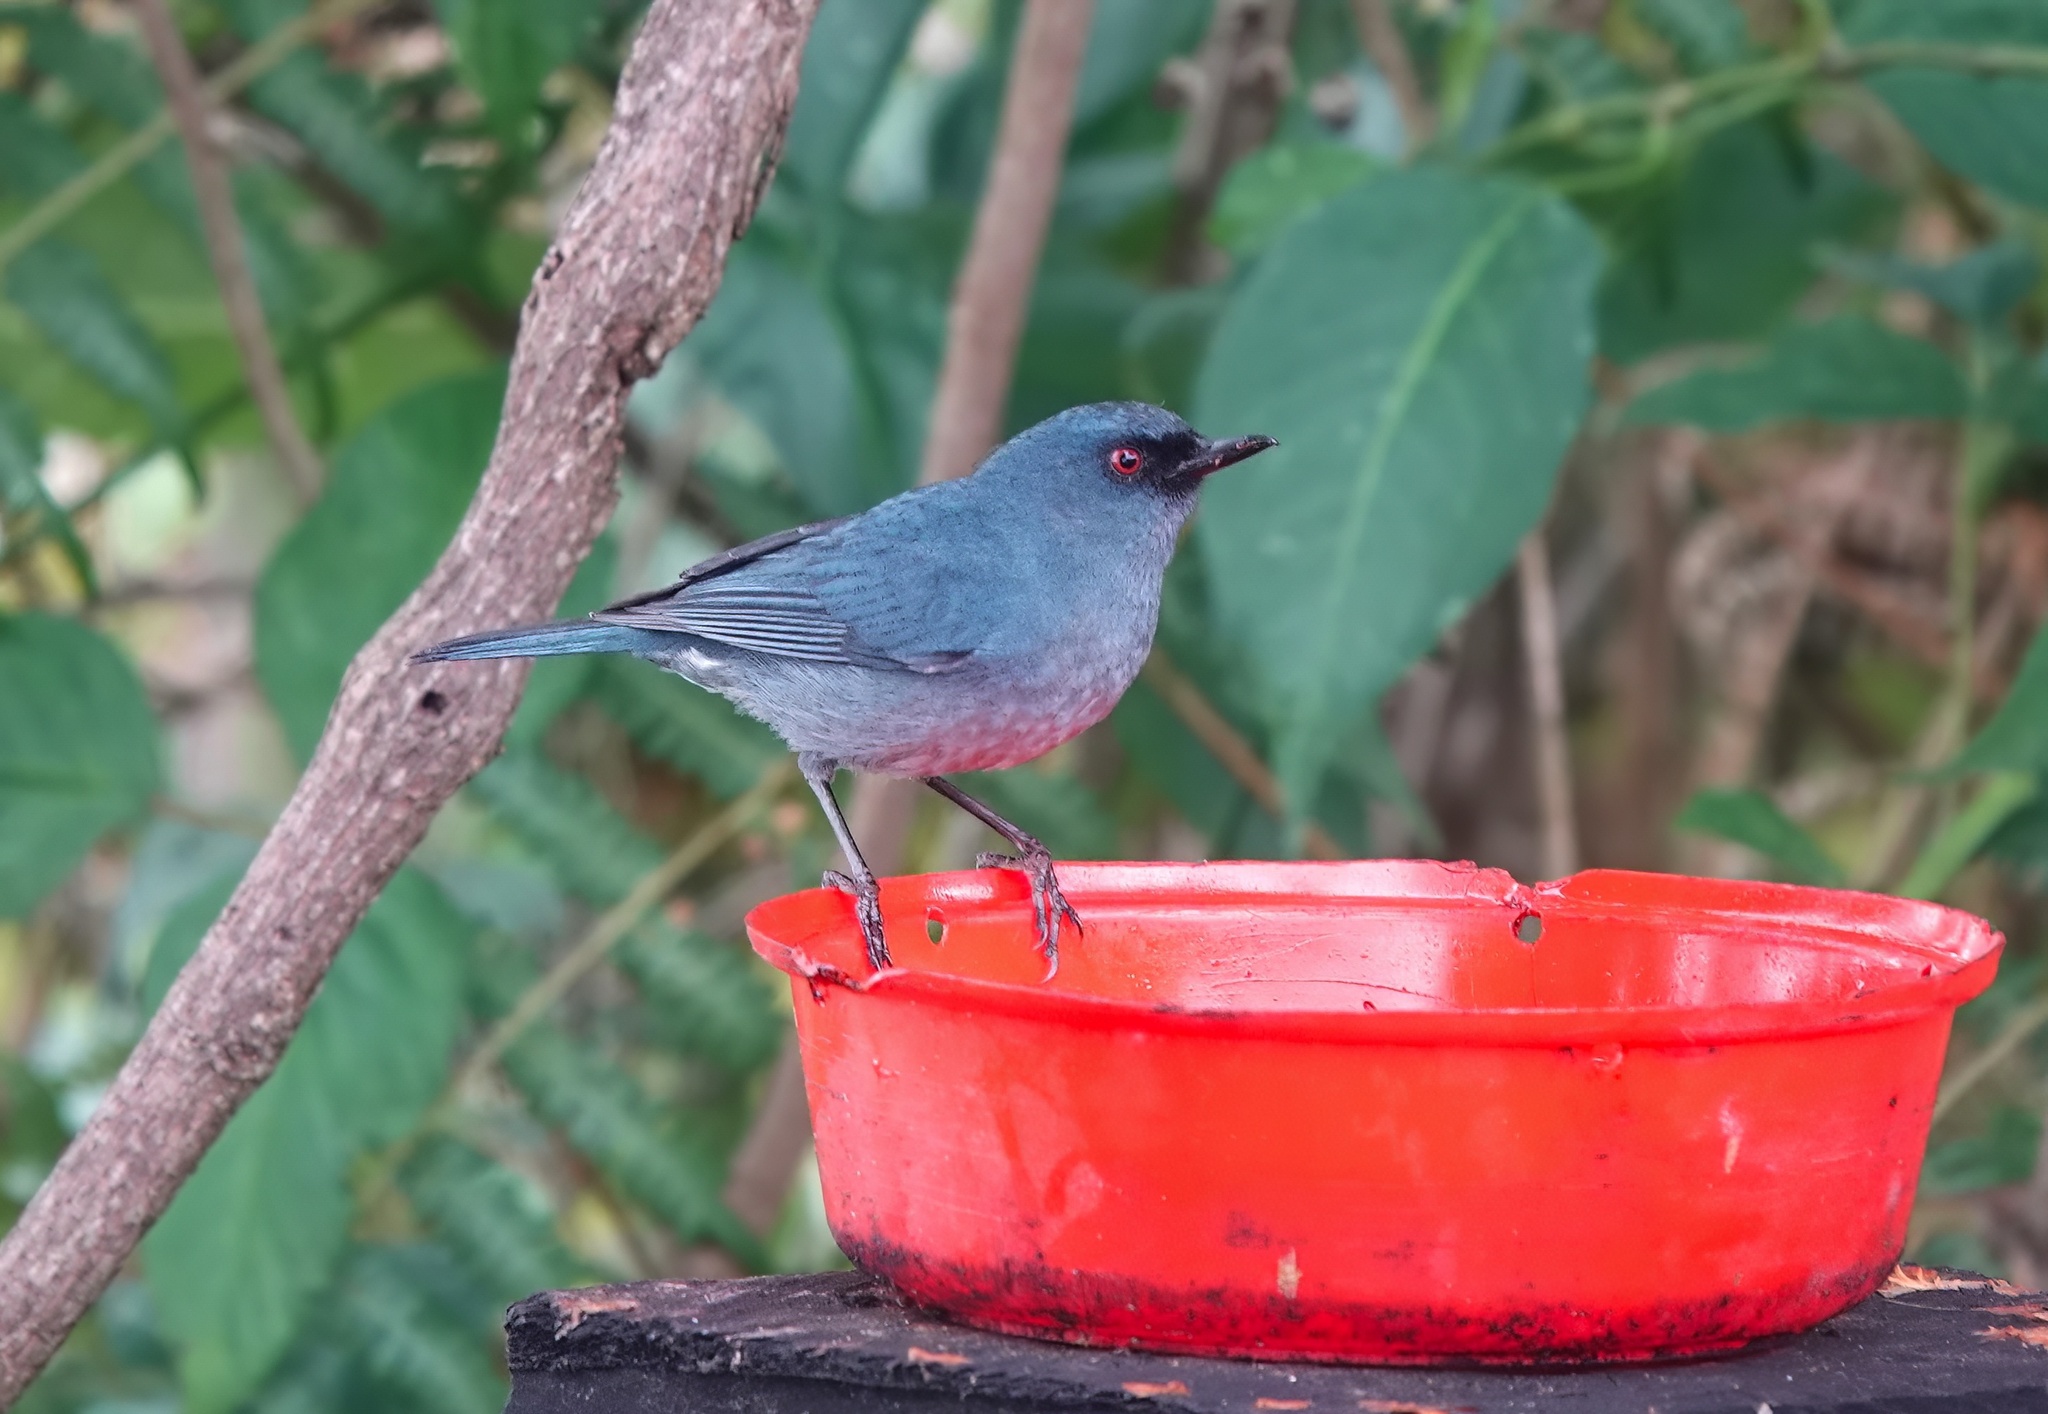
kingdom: Animalia
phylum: Chordata
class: Aves
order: Passeriformes
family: Thraupidae
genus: Diglossa
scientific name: Diglossa caerulescens
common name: Bluish flowerpiercer
